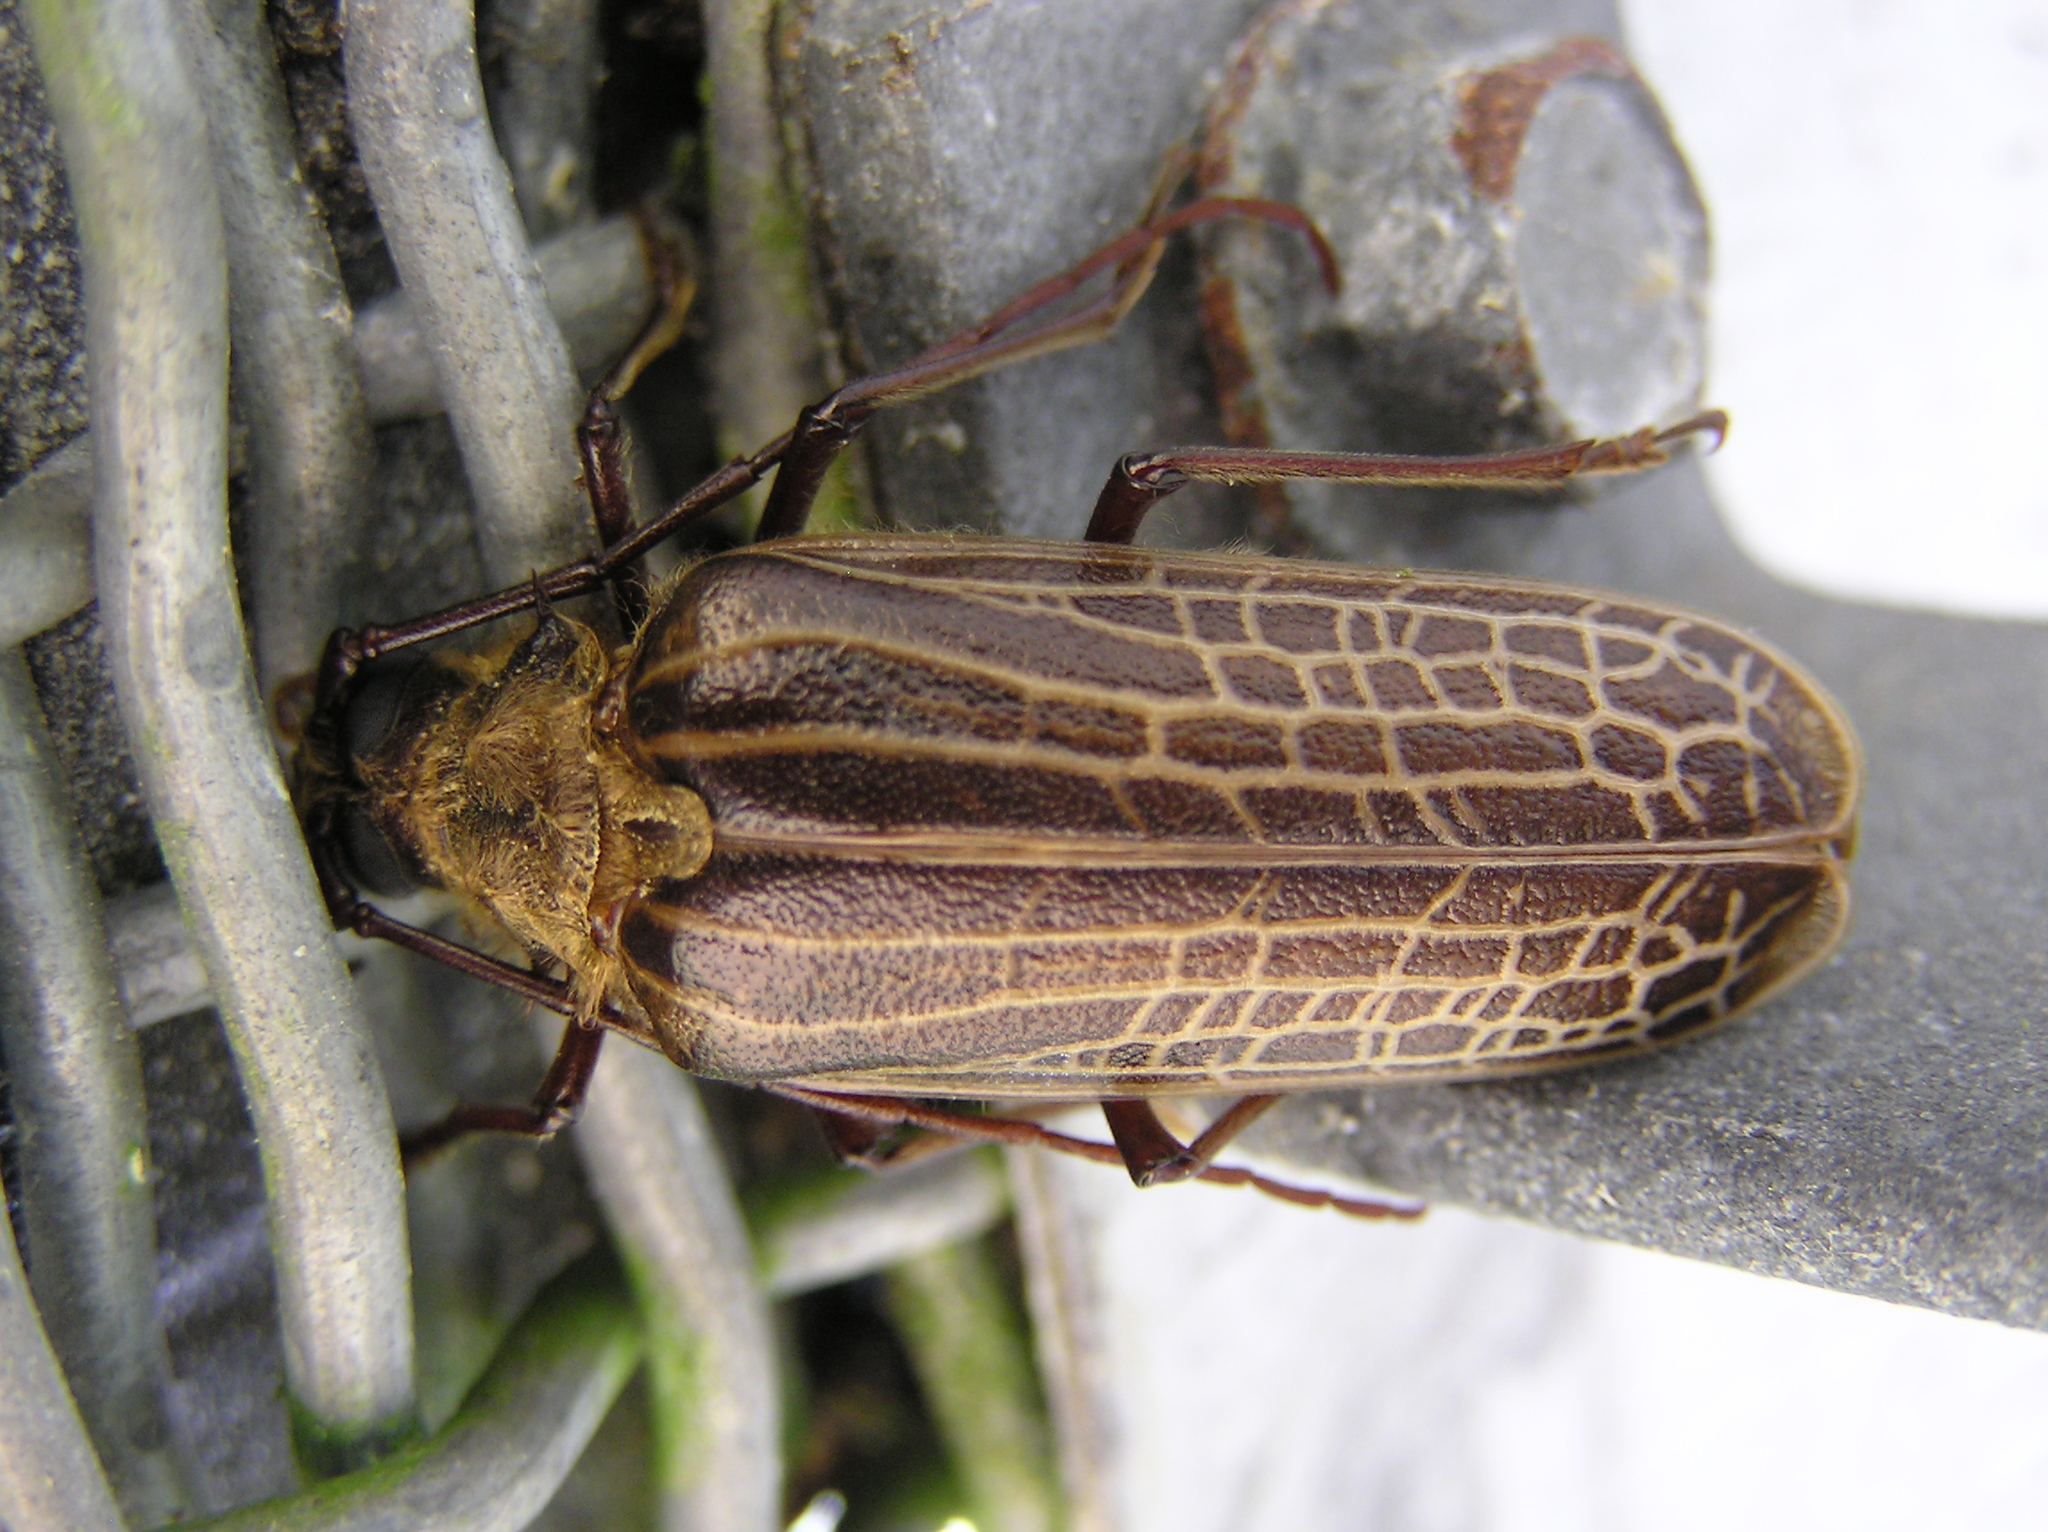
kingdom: Animalia
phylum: Arthropoda
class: Insecta
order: Coleoptera
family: Cerambycidae
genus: Prionoplus
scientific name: Prionoplus reticularis
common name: Huhu beetle
